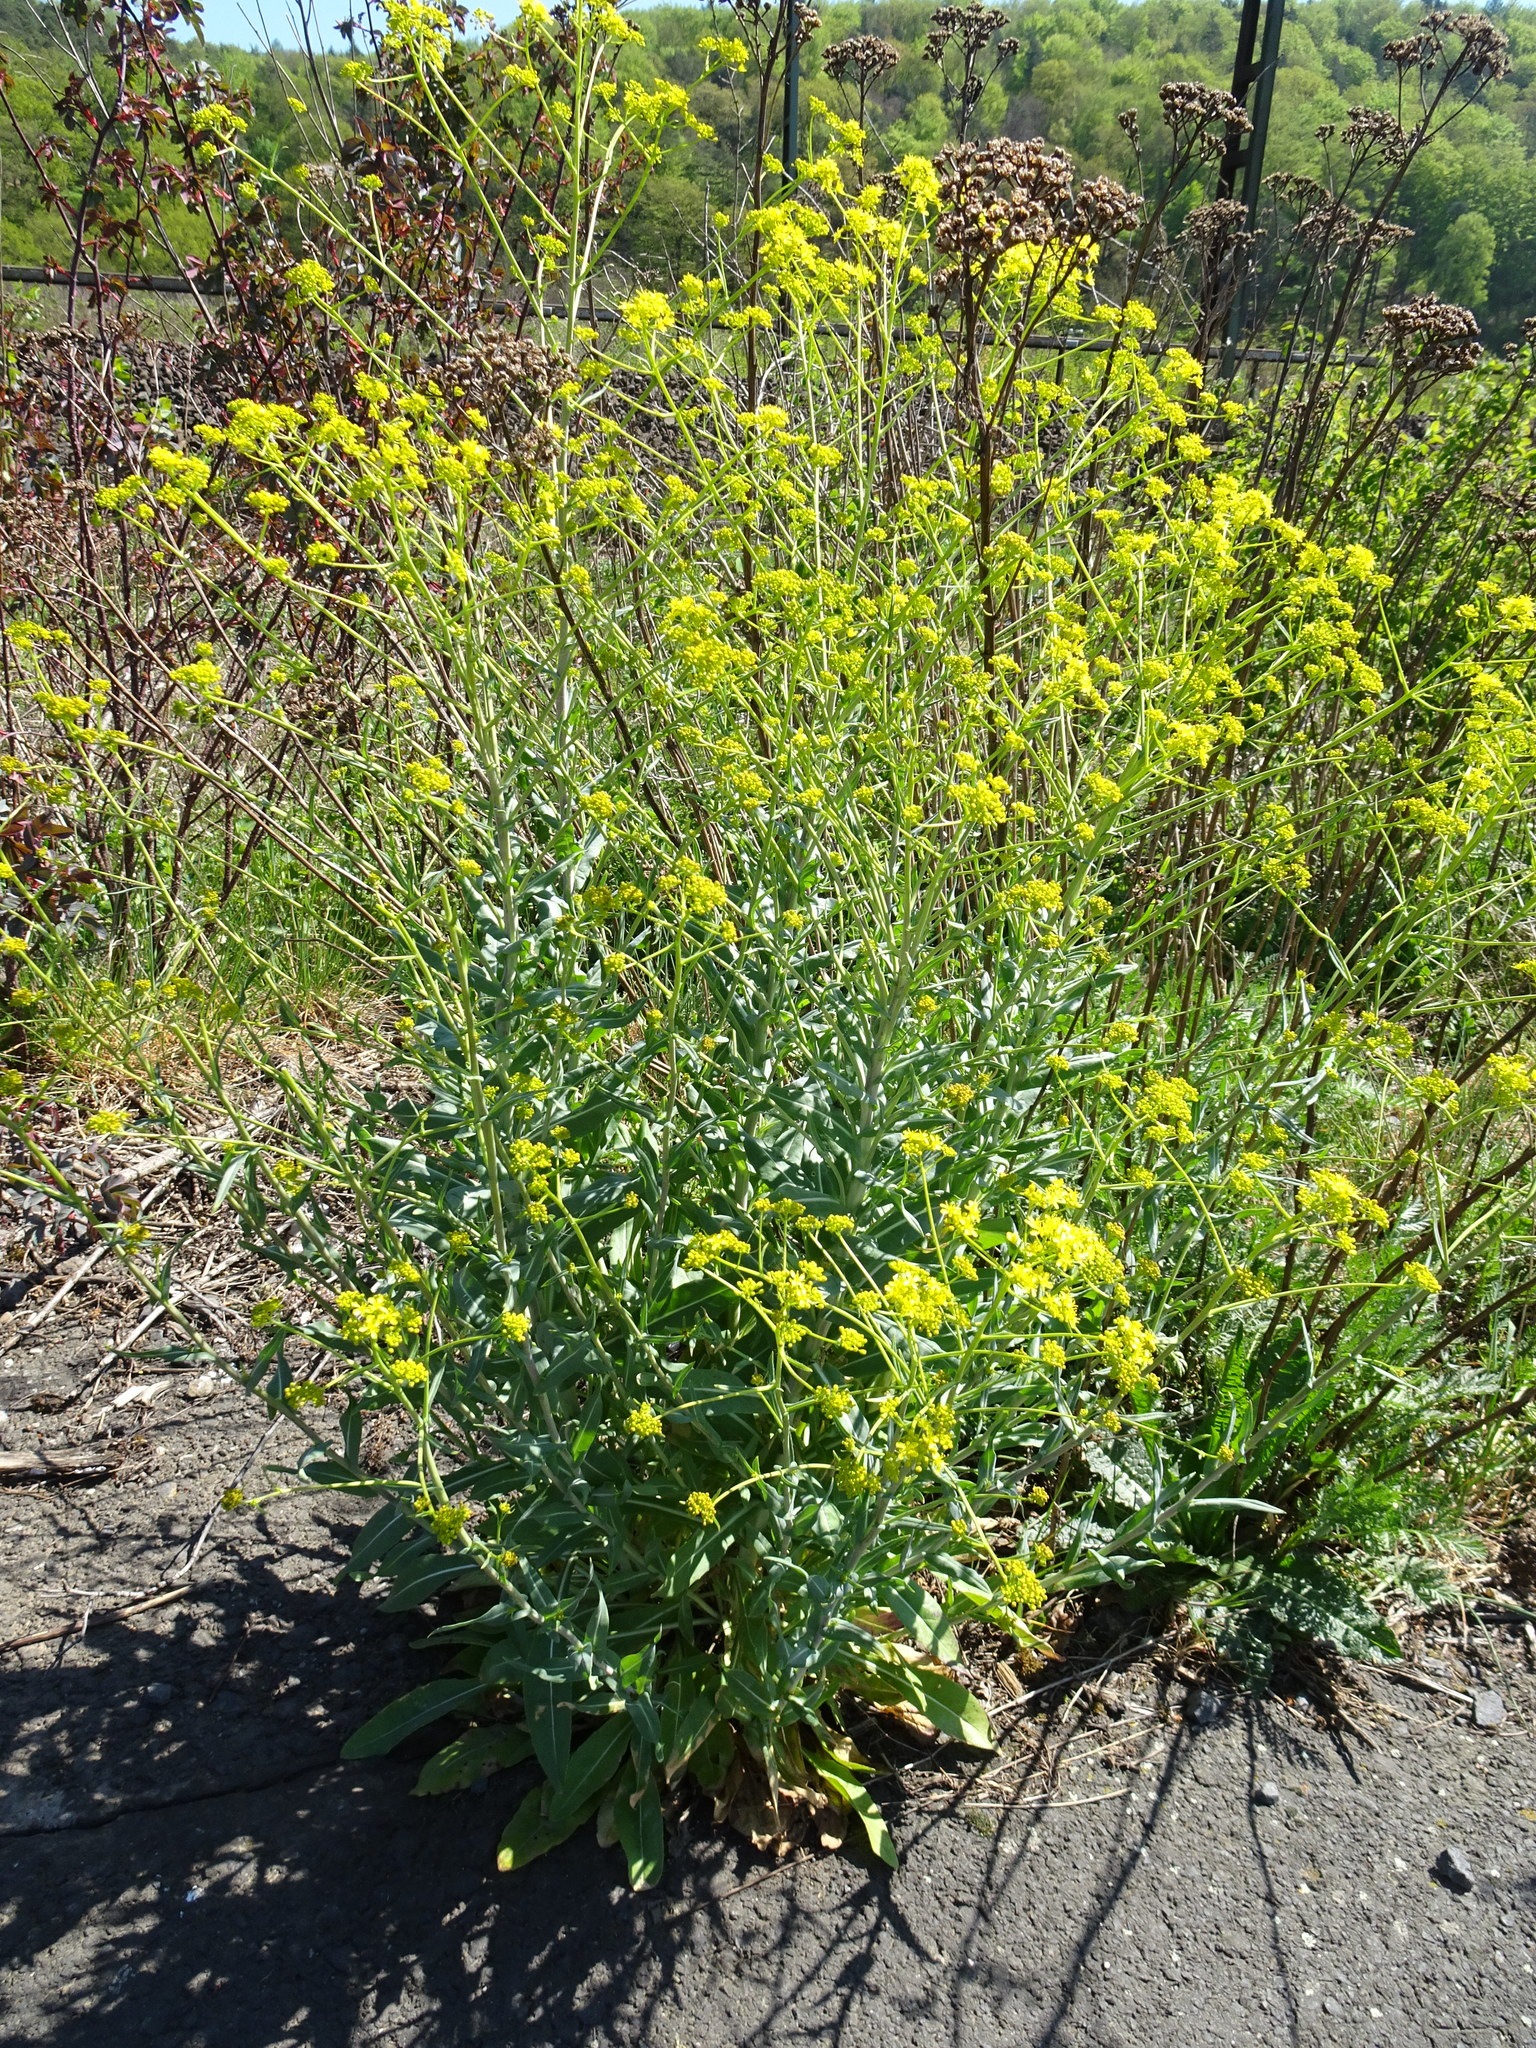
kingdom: Plantae
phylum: Tracheophyta
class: Magnoliopsida
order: Brassicales
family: Brassicaceae
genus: Isatis
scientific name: Isatis tinctoria
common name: Woad
